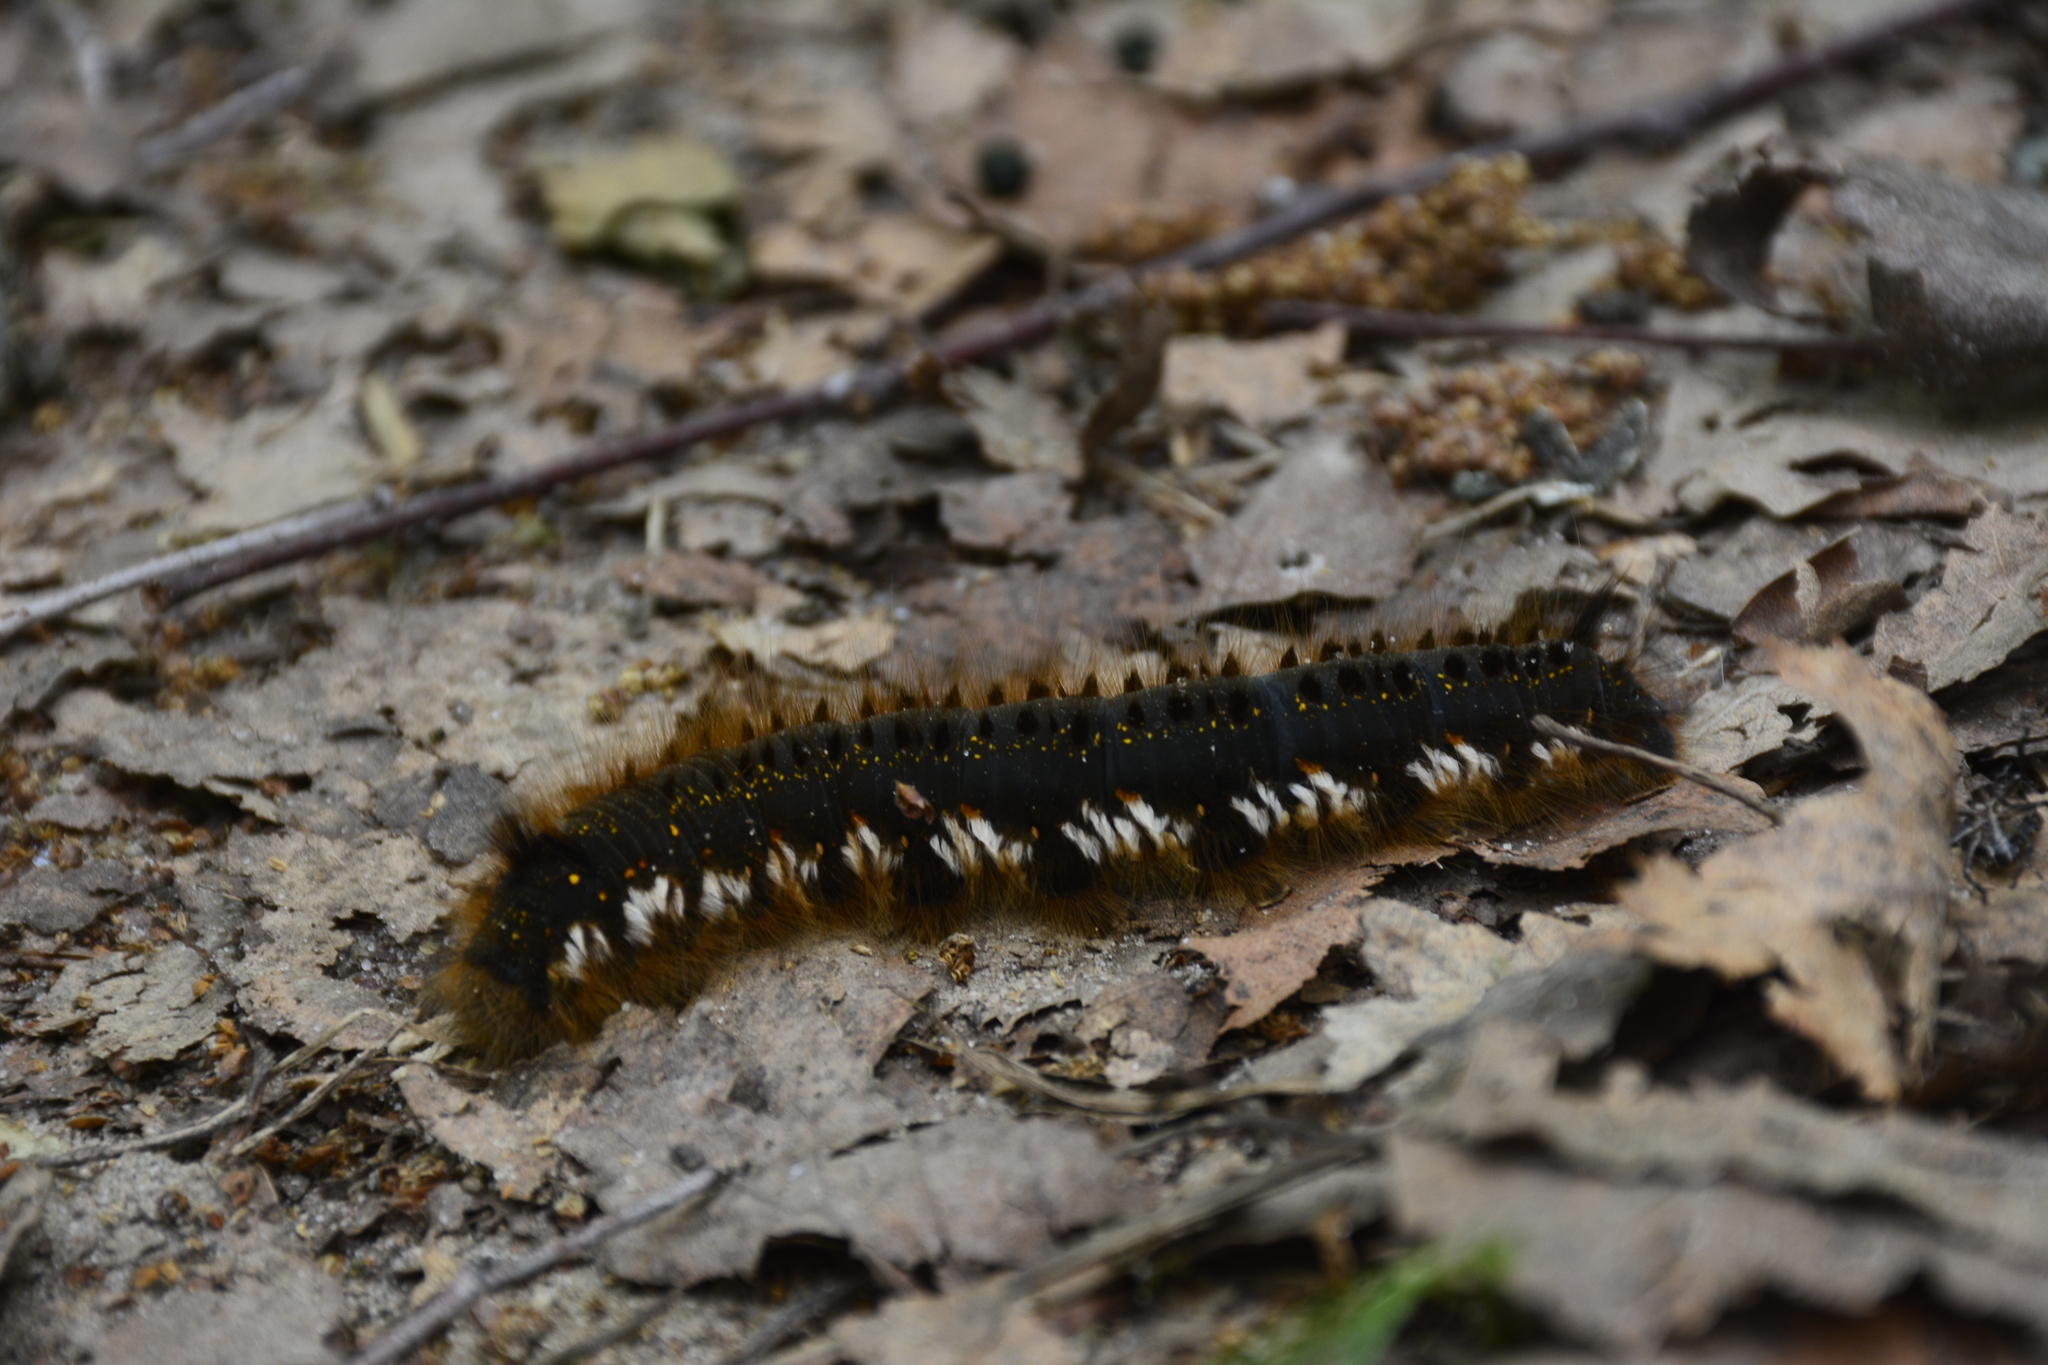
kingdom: Animalia
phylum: Arthropoda
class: Insecta
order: Lepidoptera
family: Lasiocampidae
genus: Euthrix
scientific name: Euthrix potatoria
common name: Drinker
